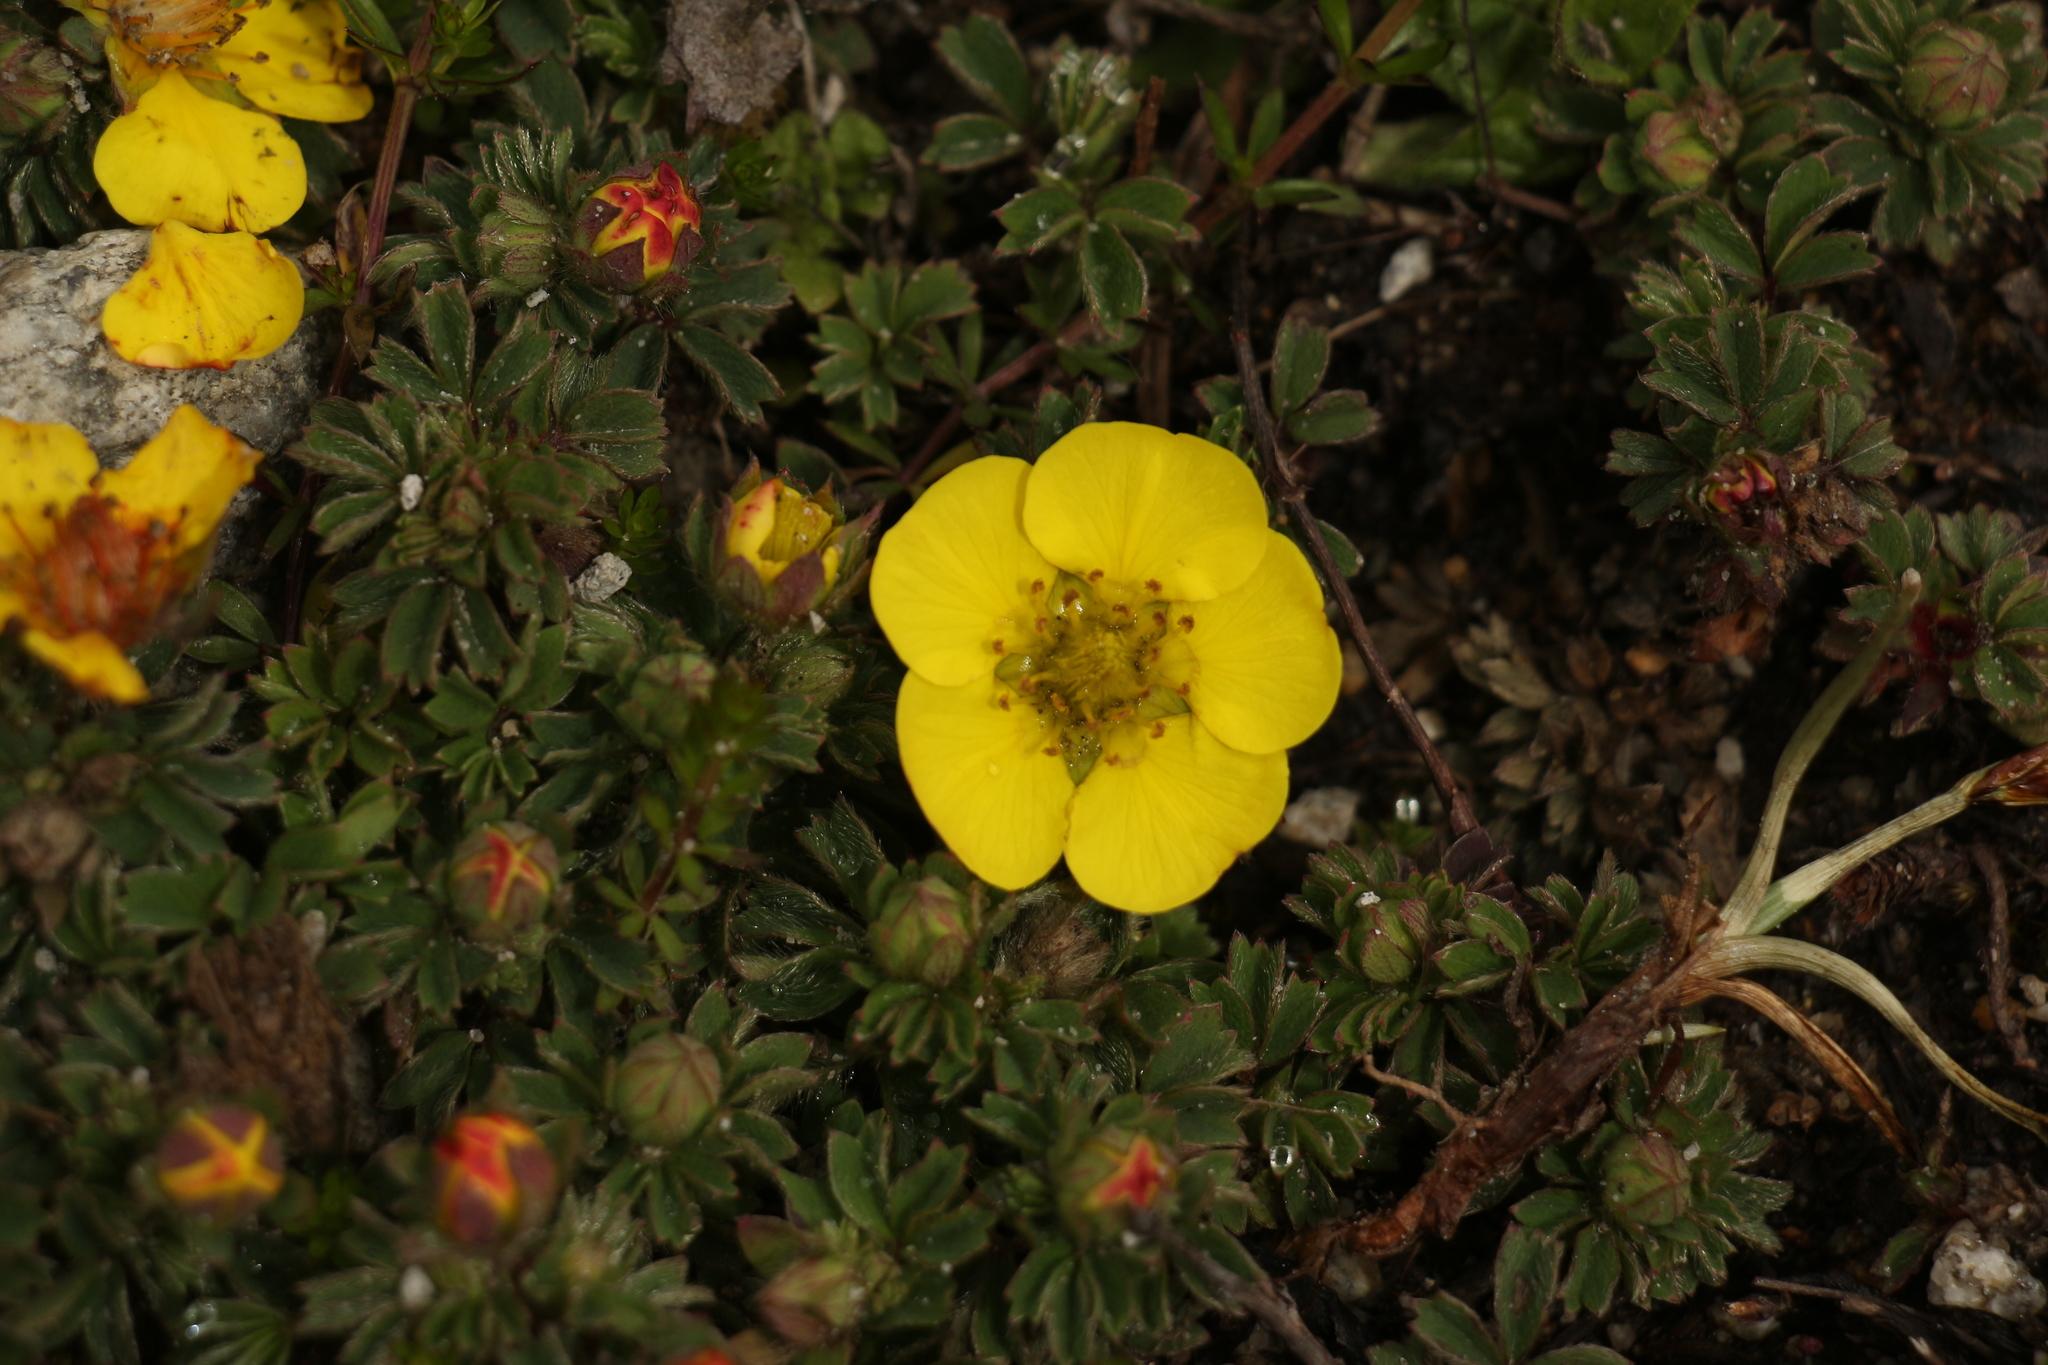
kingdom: Plantae
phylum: Tracheophyta
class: Magnoliopsida
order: Rosales
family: Rosaceae
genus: Sibbaldia
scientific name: Sibbaldia cuneifolia
